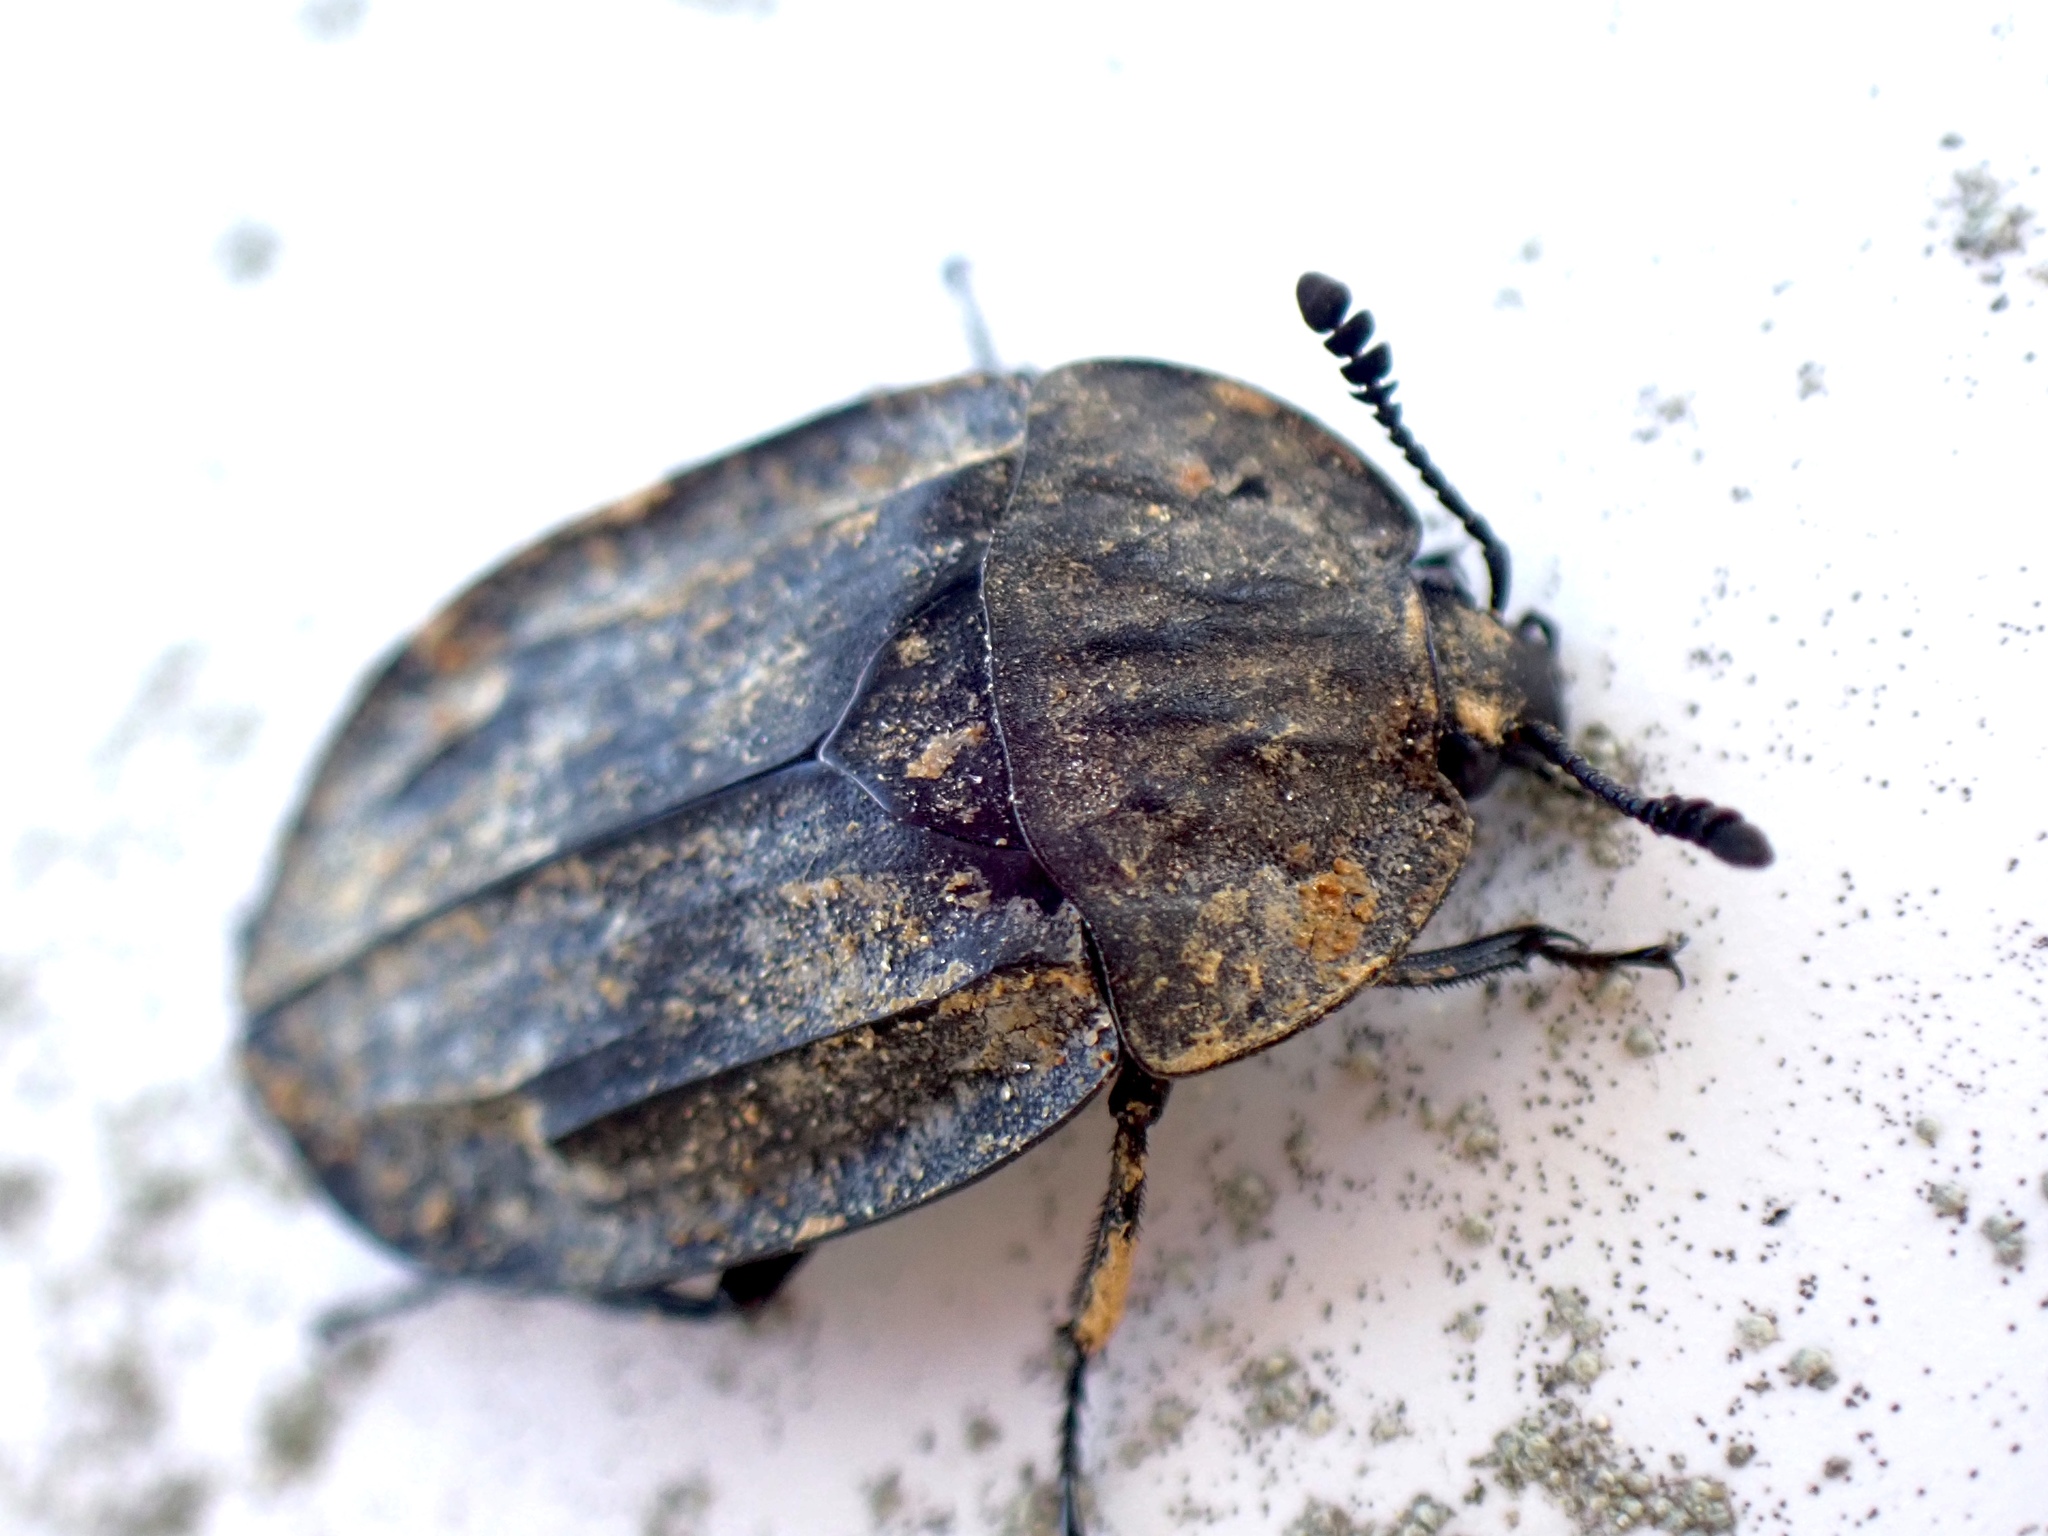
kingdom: Animalia
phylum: Arthropoda
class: Insecta
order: Coleoptera
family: Staphylinidae
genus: Oiceoptoma
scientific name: Oiceoptoma inaequale
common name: Ridged carrion beetle
